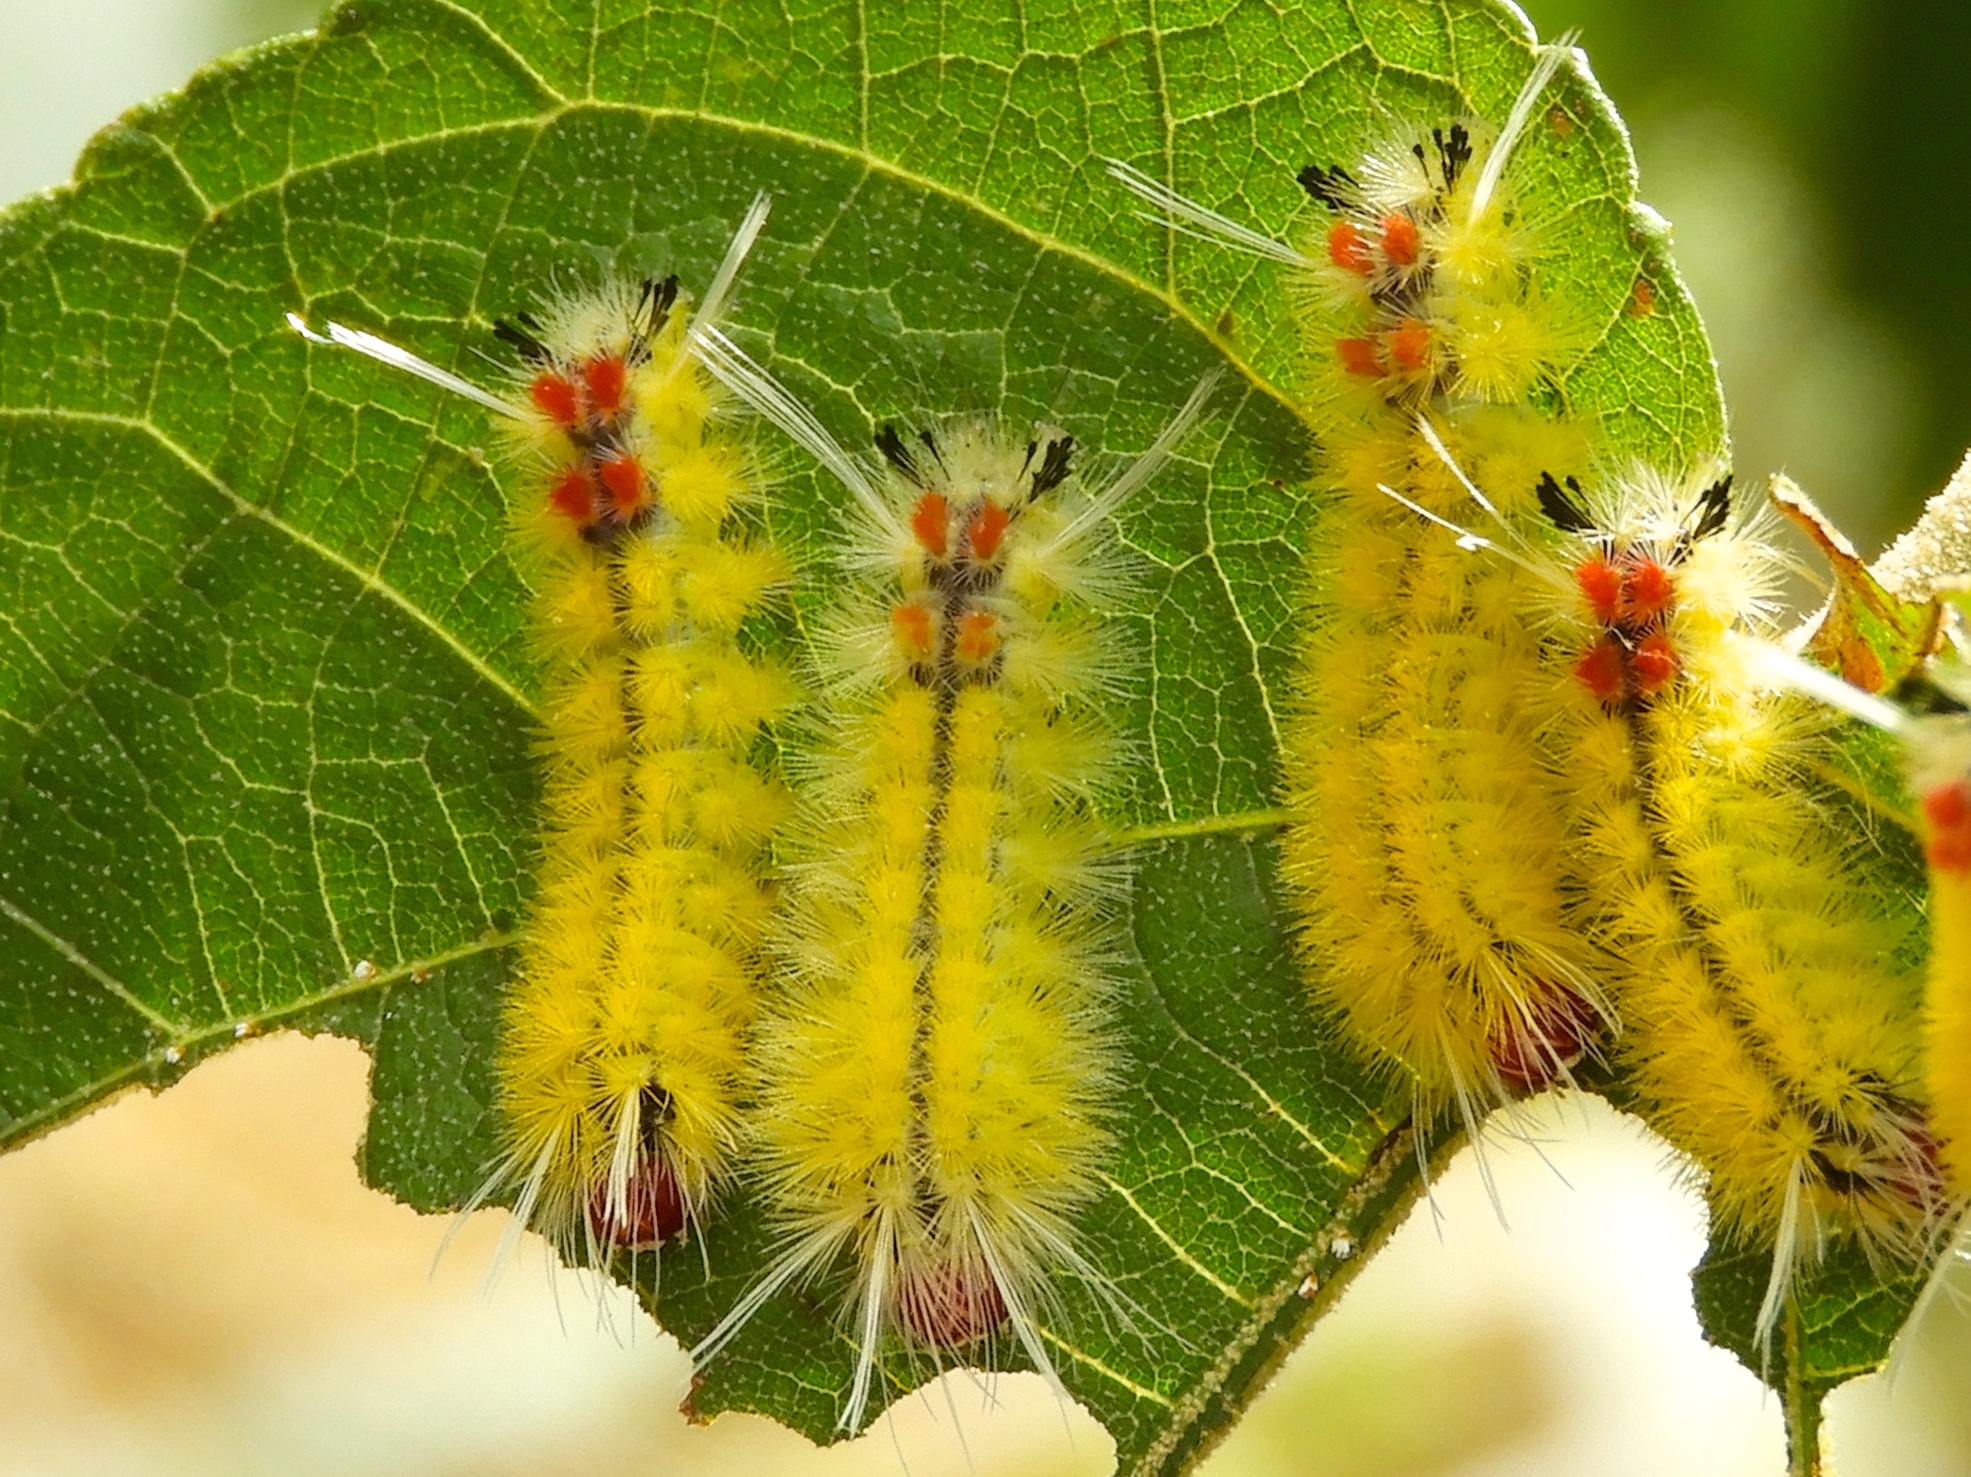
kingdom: Animalia
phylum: Arthropoda
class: Insecta
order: Lepidoptera
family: Erebidae
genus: Lophocampa
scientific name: Lophocampa annulosa
